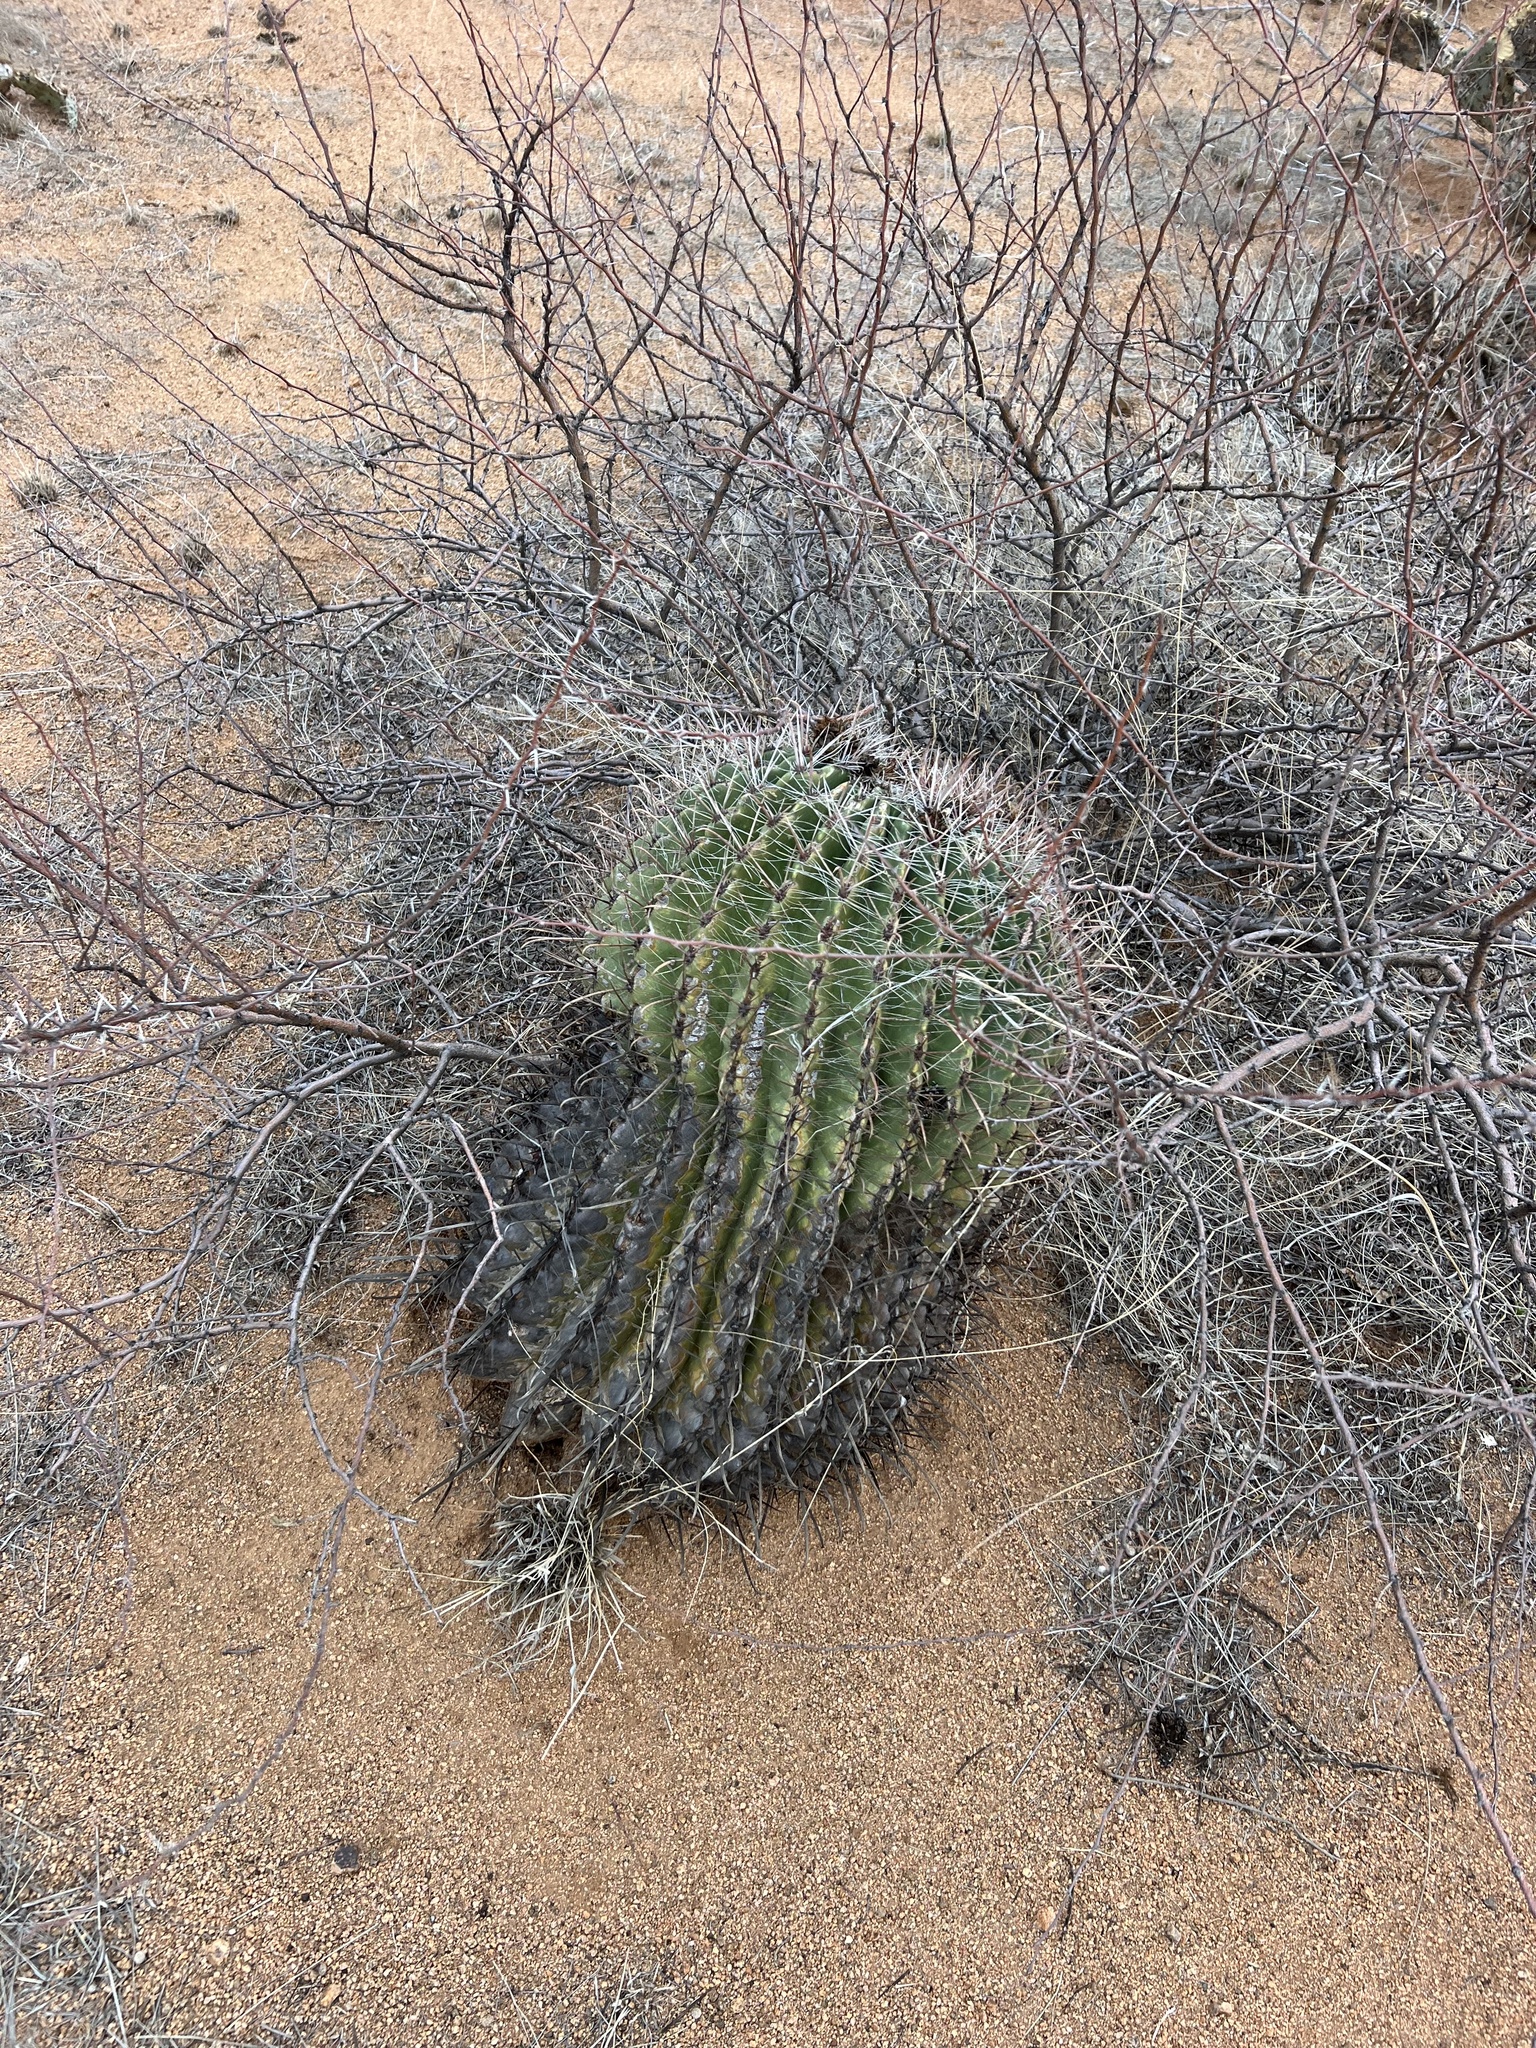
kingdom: Plantae
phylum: Tracheophyta
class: Magnoliopsida
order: Caryophyllales
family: Cactaceae
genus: Ferocactus
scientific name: Ferocactus wislizeni
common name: Candy barrel cactus
